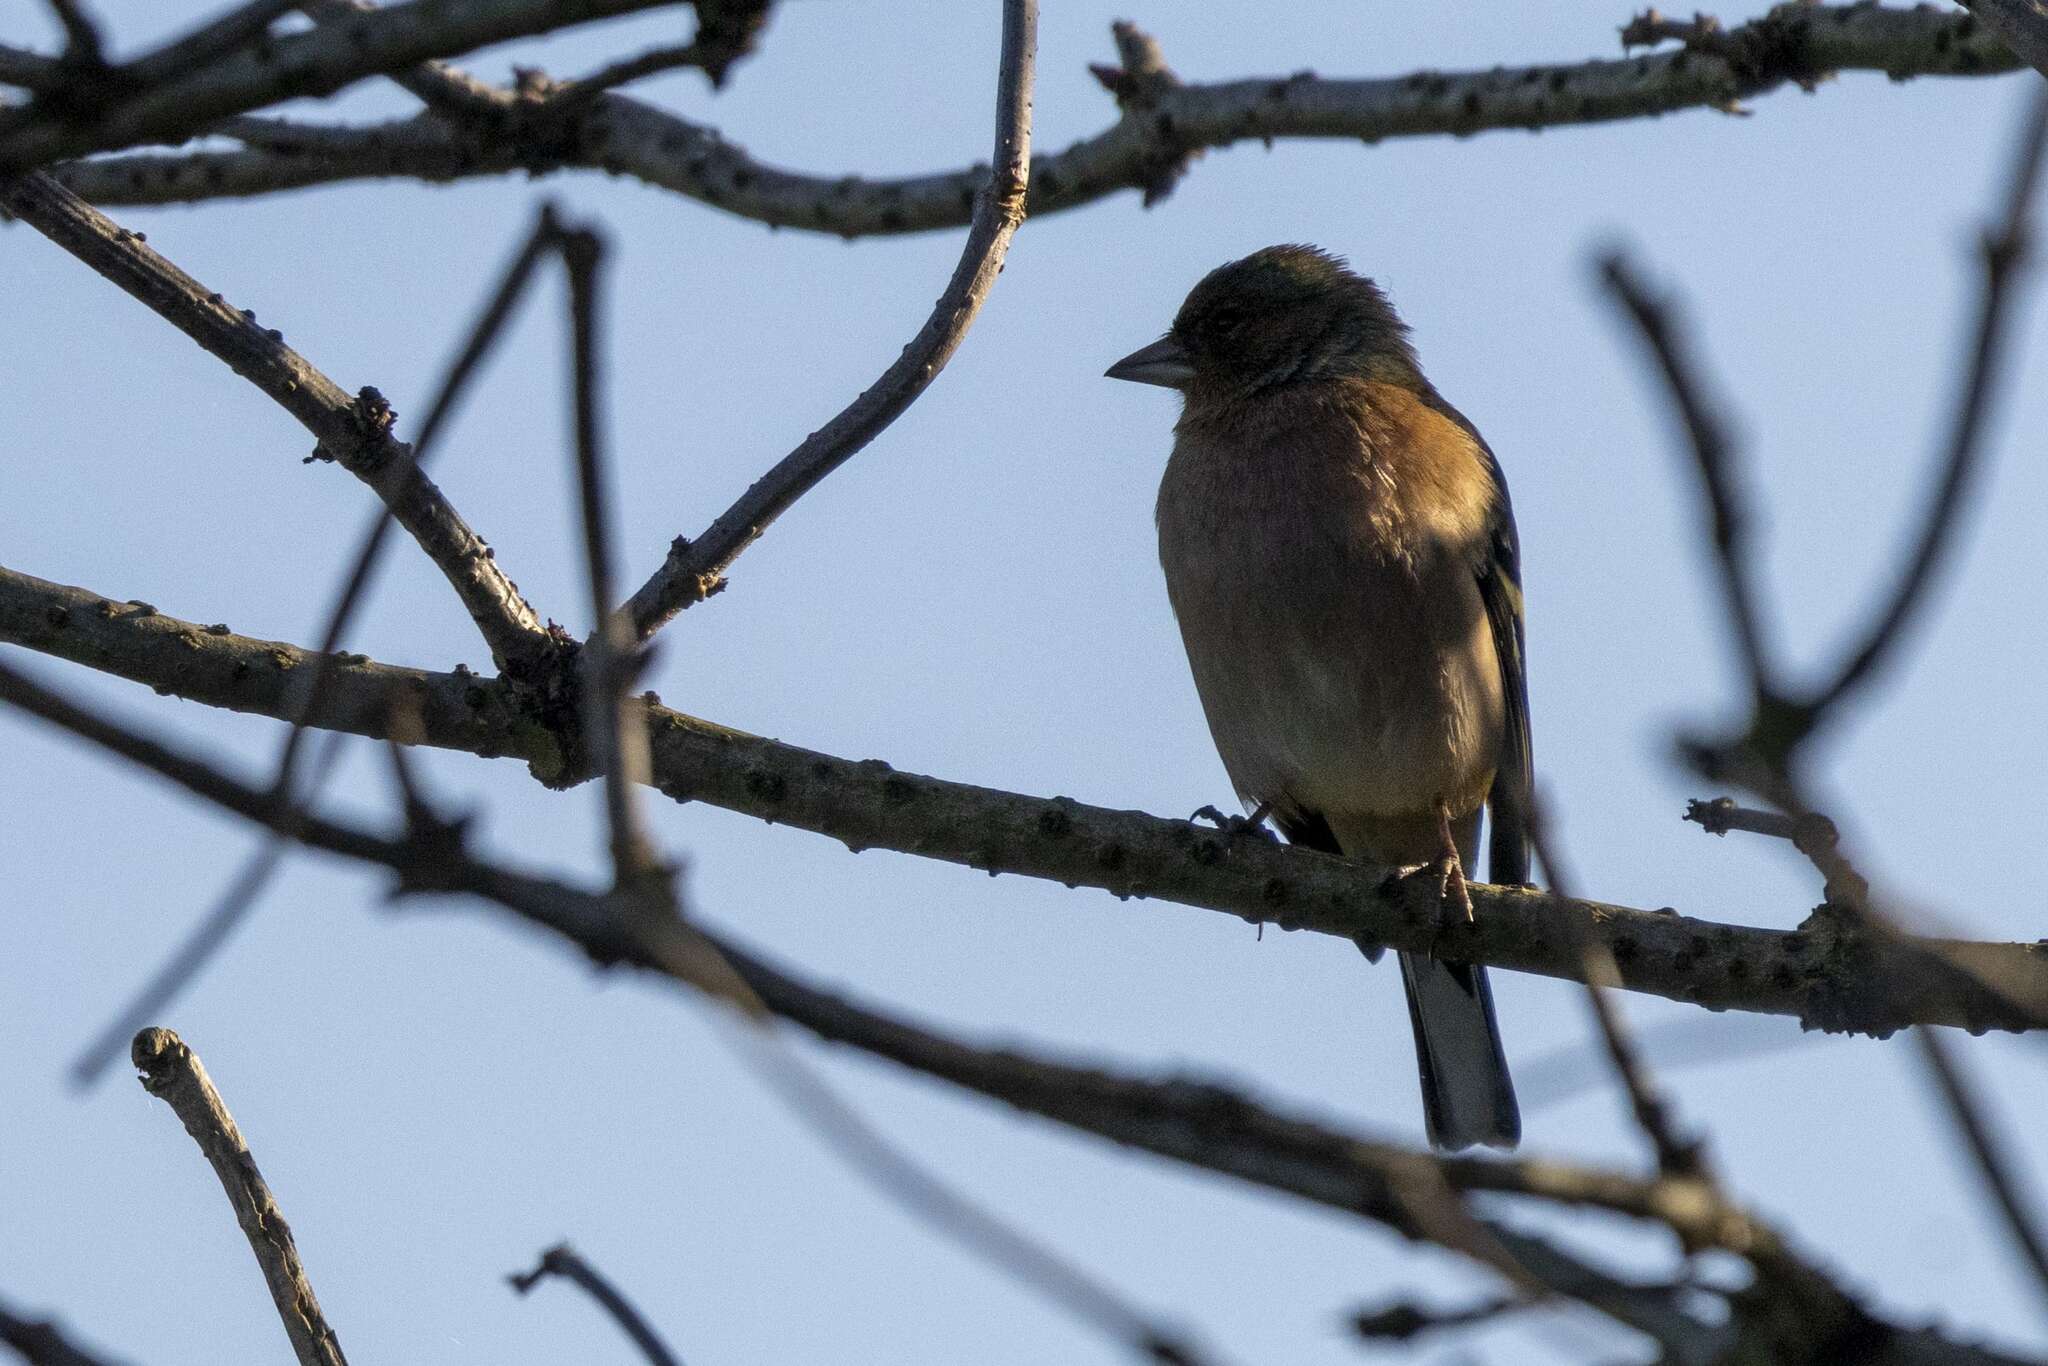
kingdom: Animalia
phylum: Chordata
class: Aves
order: Passeriformes
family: Fringillidae
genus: Fringilla
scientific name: Fringilla coelebs
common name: Common chaffinch
